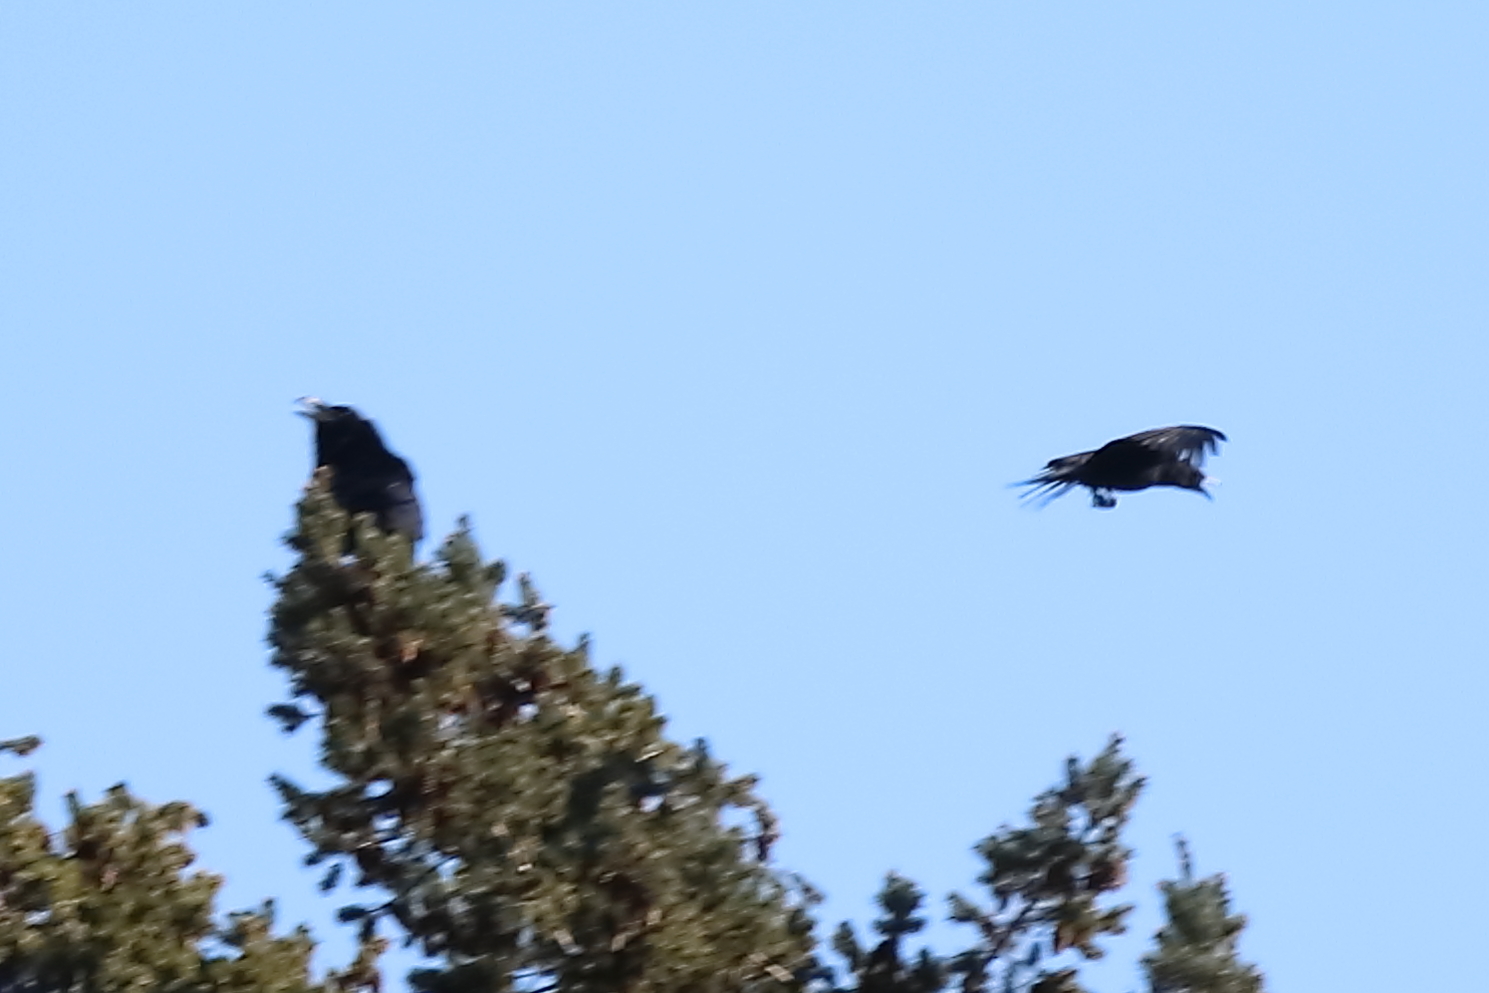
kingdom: Animalia
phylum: Chordata
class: Aves
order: Passeriformes
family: Corvidae
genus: Corvus
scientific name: Corvus corax
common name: Common raven
